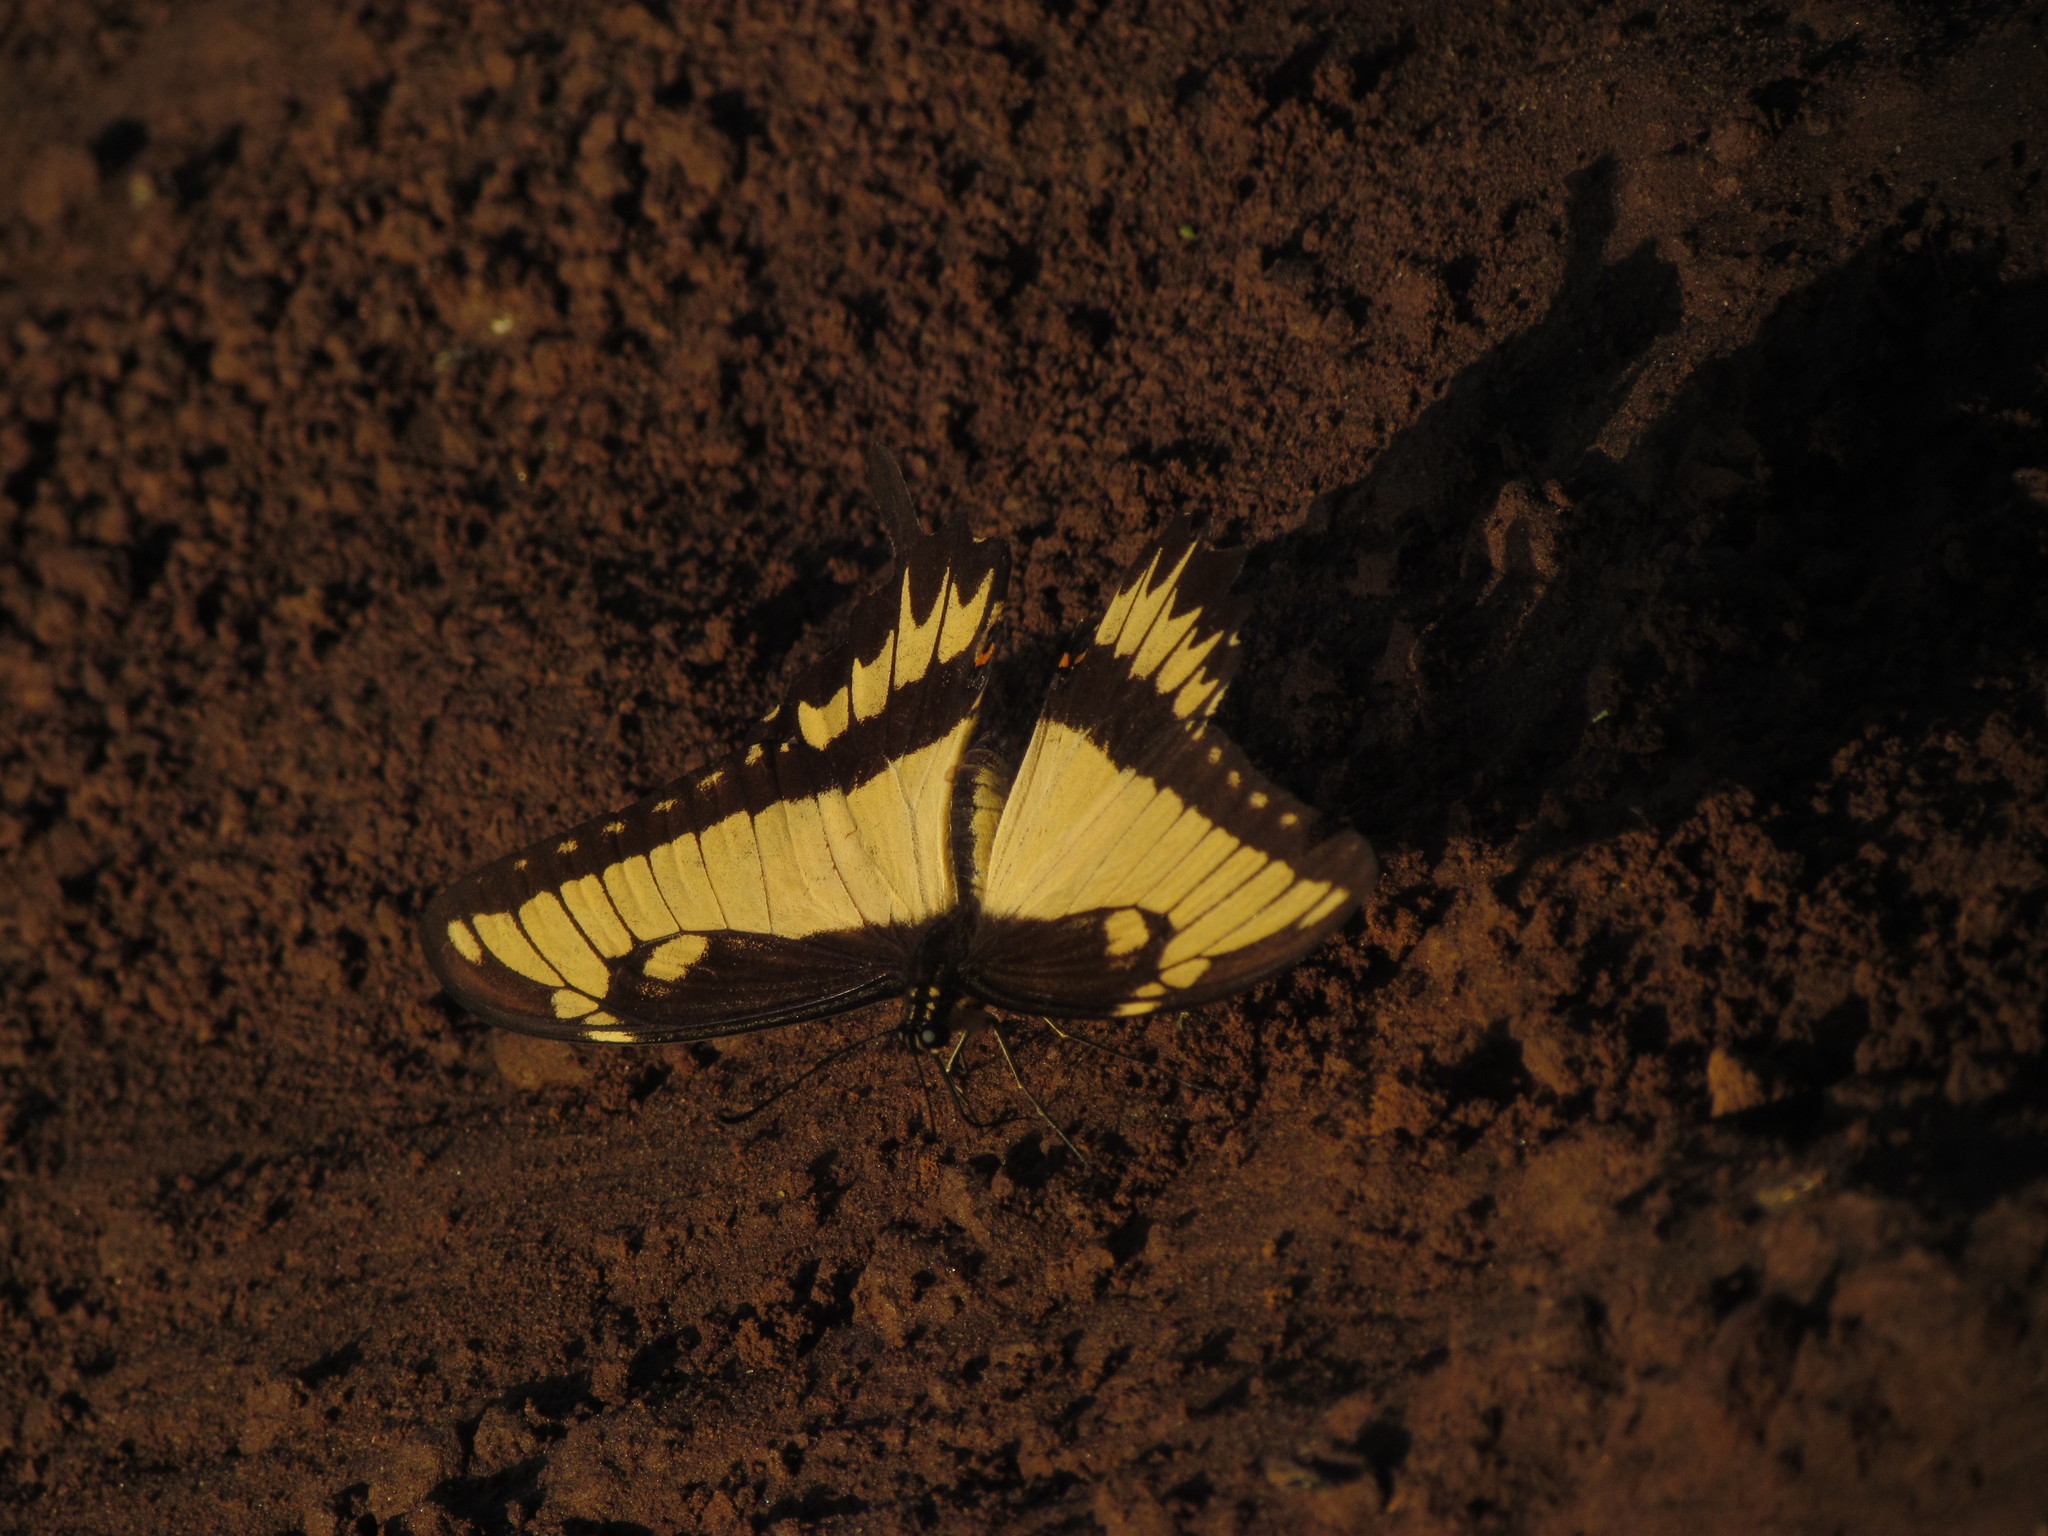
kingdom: Animalia
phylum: Arthropoda
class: Insecta
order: Lepidoptera
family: Papilionidae
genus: Papilio
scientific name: Papilio astyalus
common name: Astyalus swallowtail
